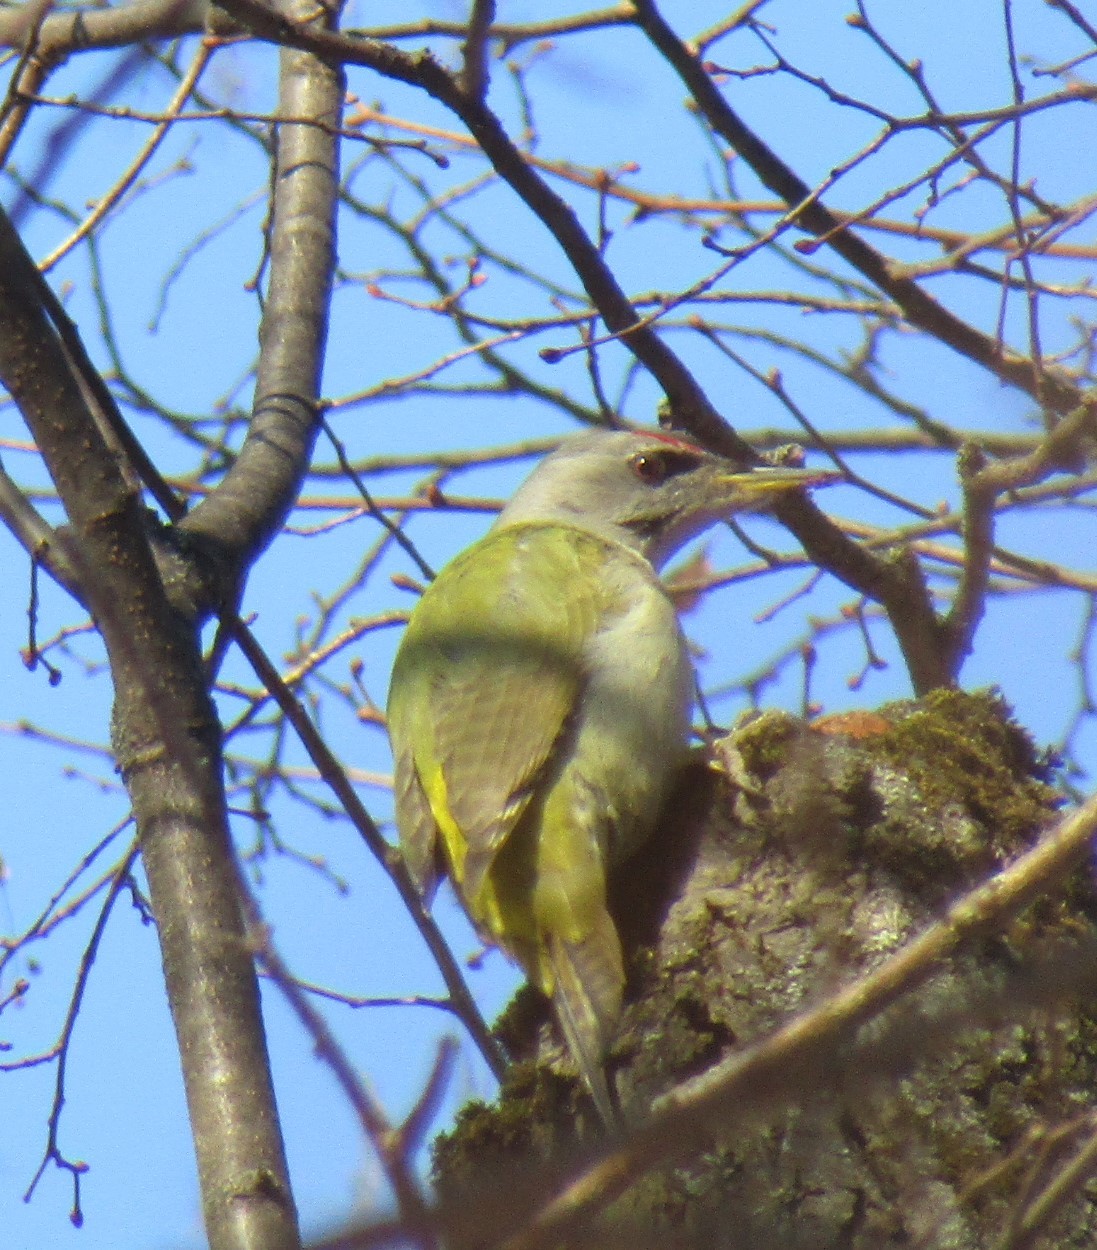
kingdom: Animalia
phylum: Chordata
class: Aves
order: Piciformes
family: Picidae
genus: Picus
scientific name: Picus canus
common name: Grey-headed woodpecker
